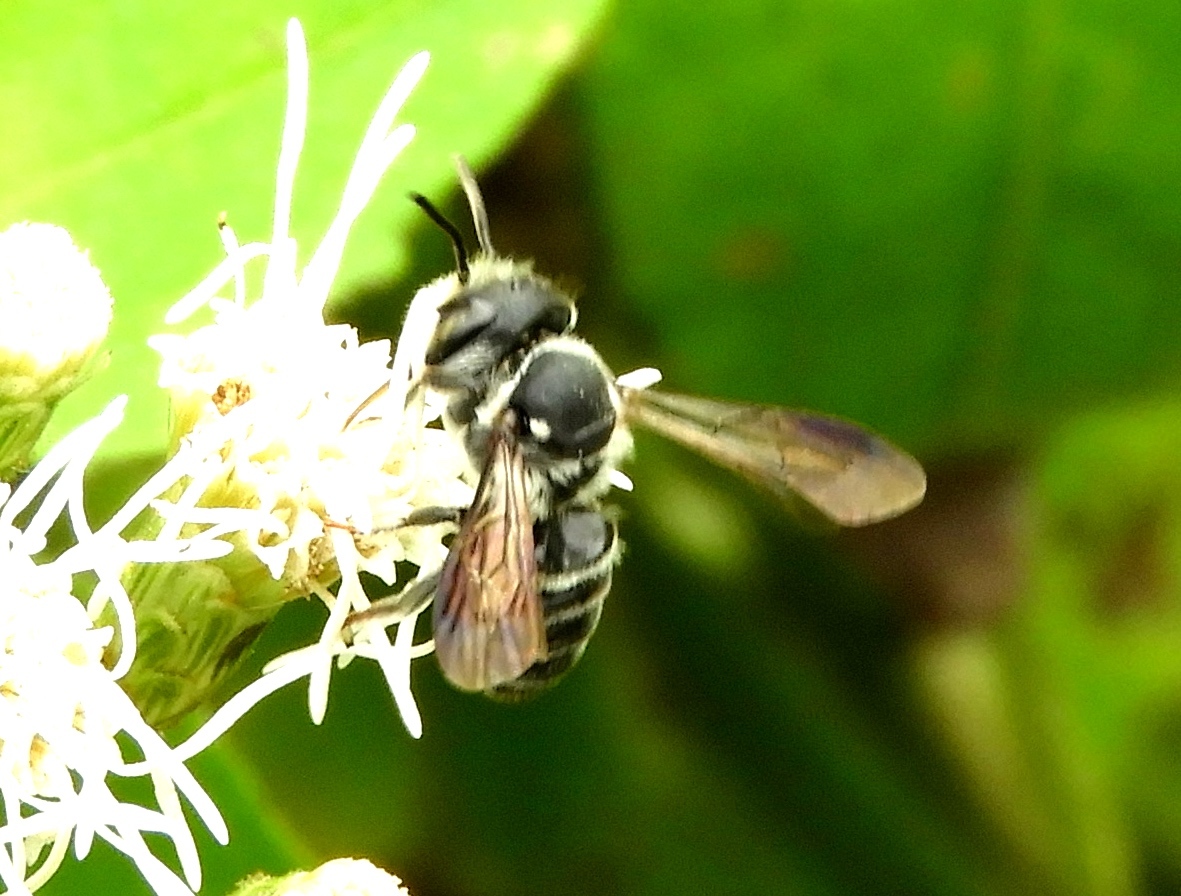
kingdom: Animalia
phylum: Arthropoda
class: Insecta
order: Hymenoptera
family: Megachilidae
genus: Megachile
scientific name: Megachile
